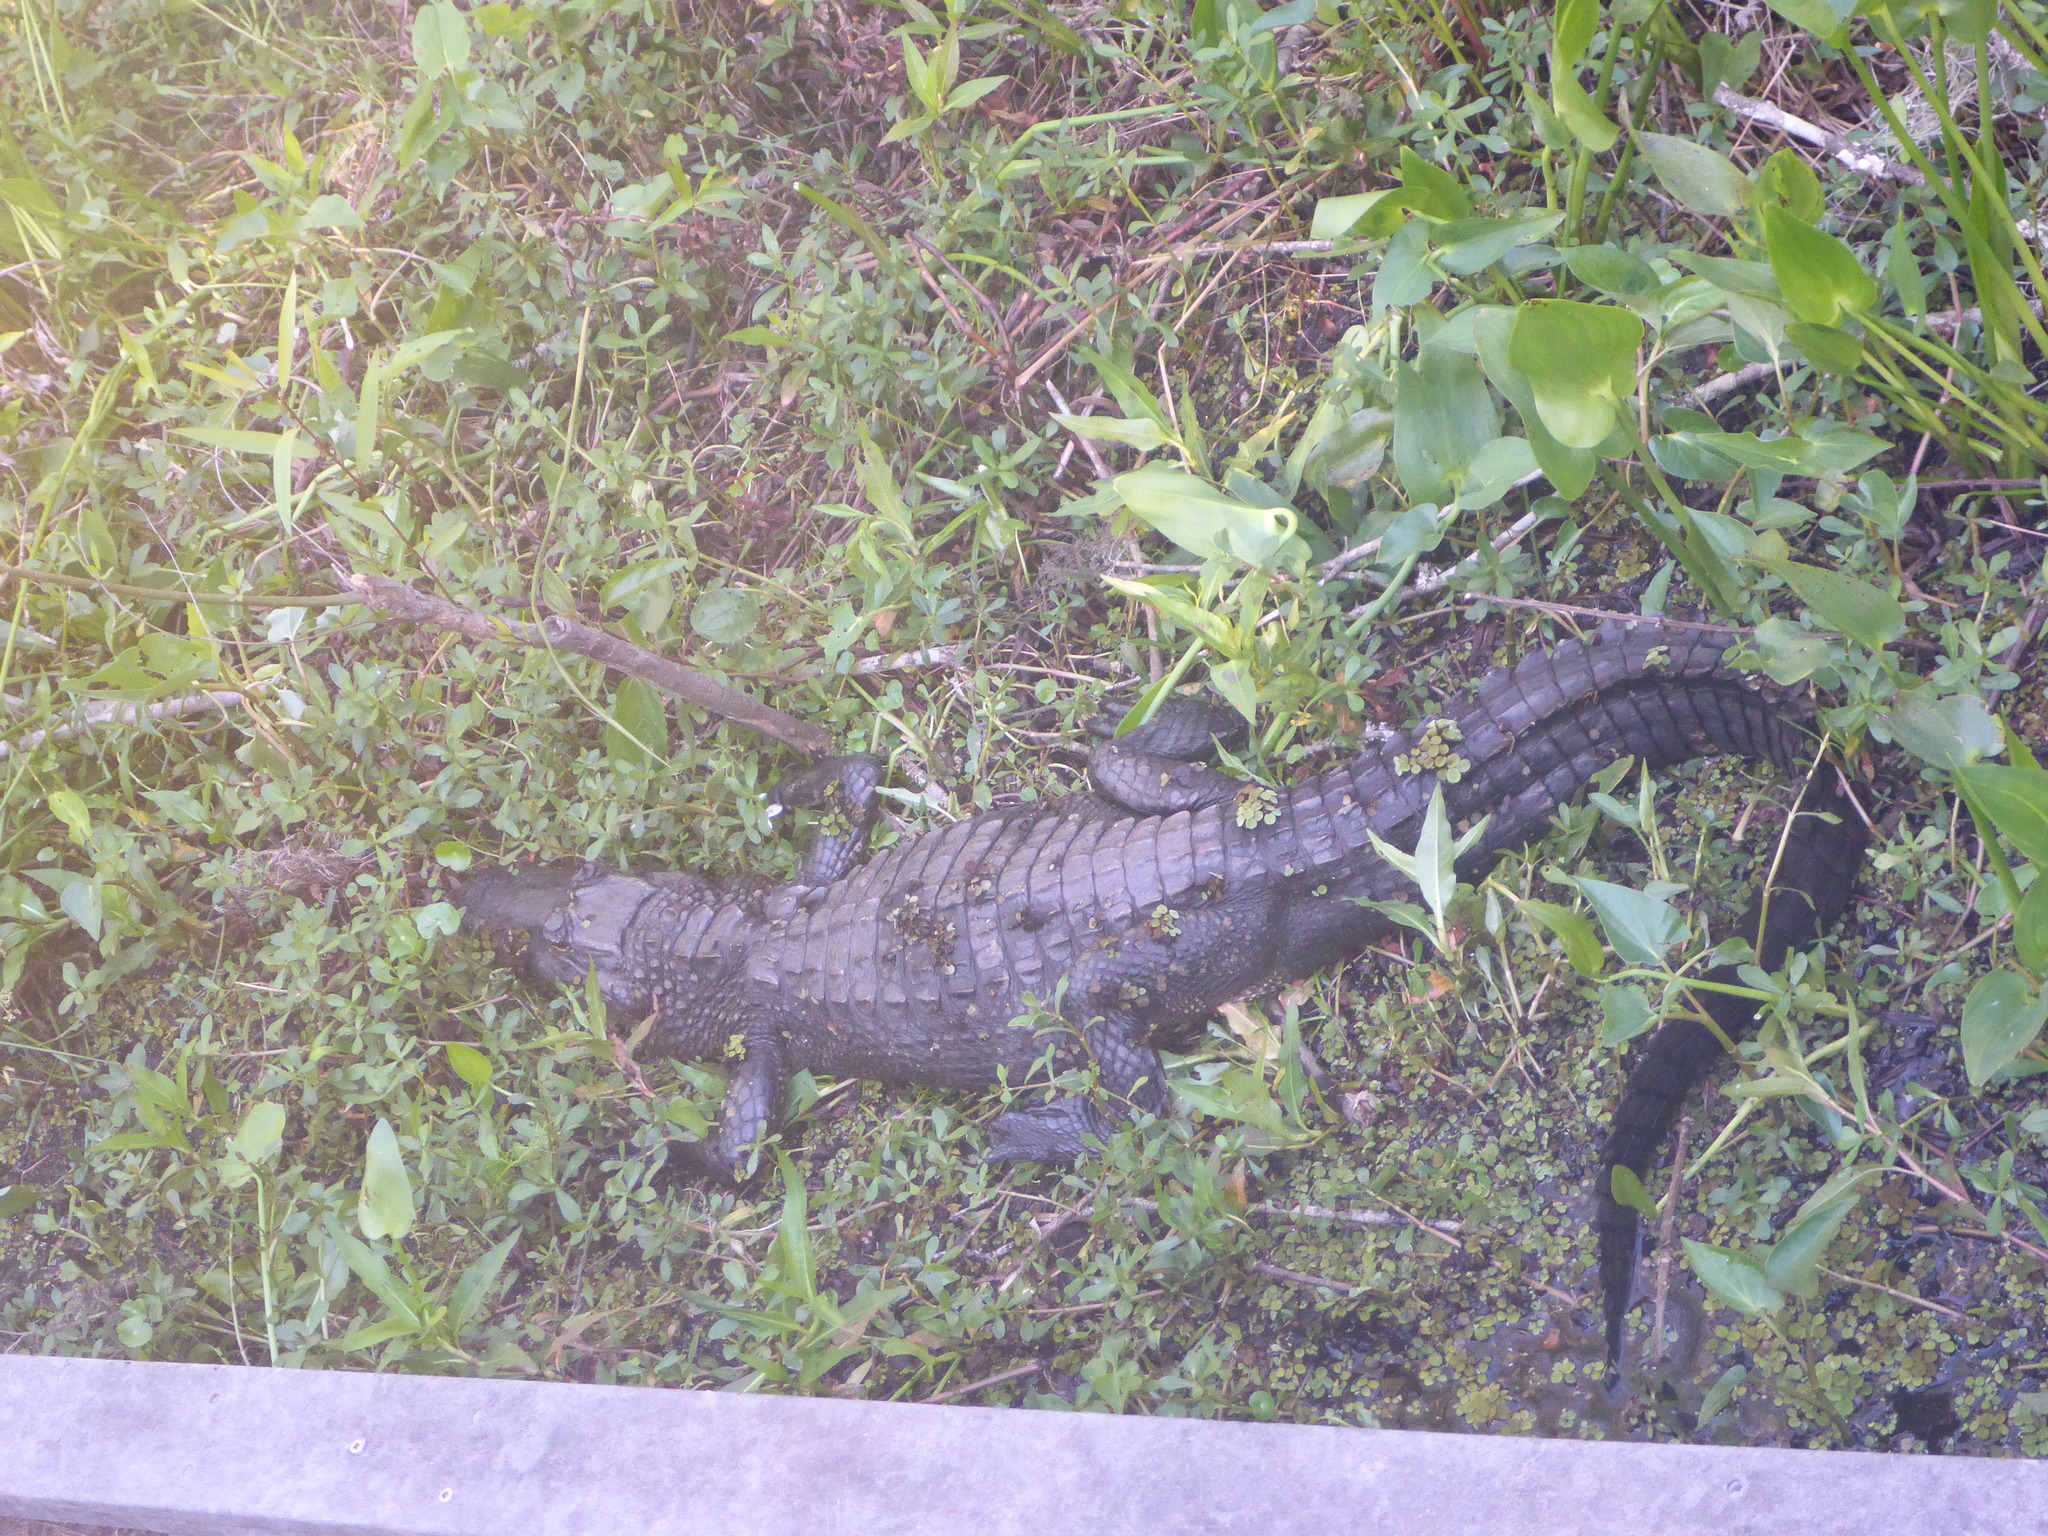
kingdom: Animalia
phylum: Chordata
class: Crocodylia
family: Alligatoridae
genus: Alligator
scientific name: Alligator mississippiensis
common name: American alligator
